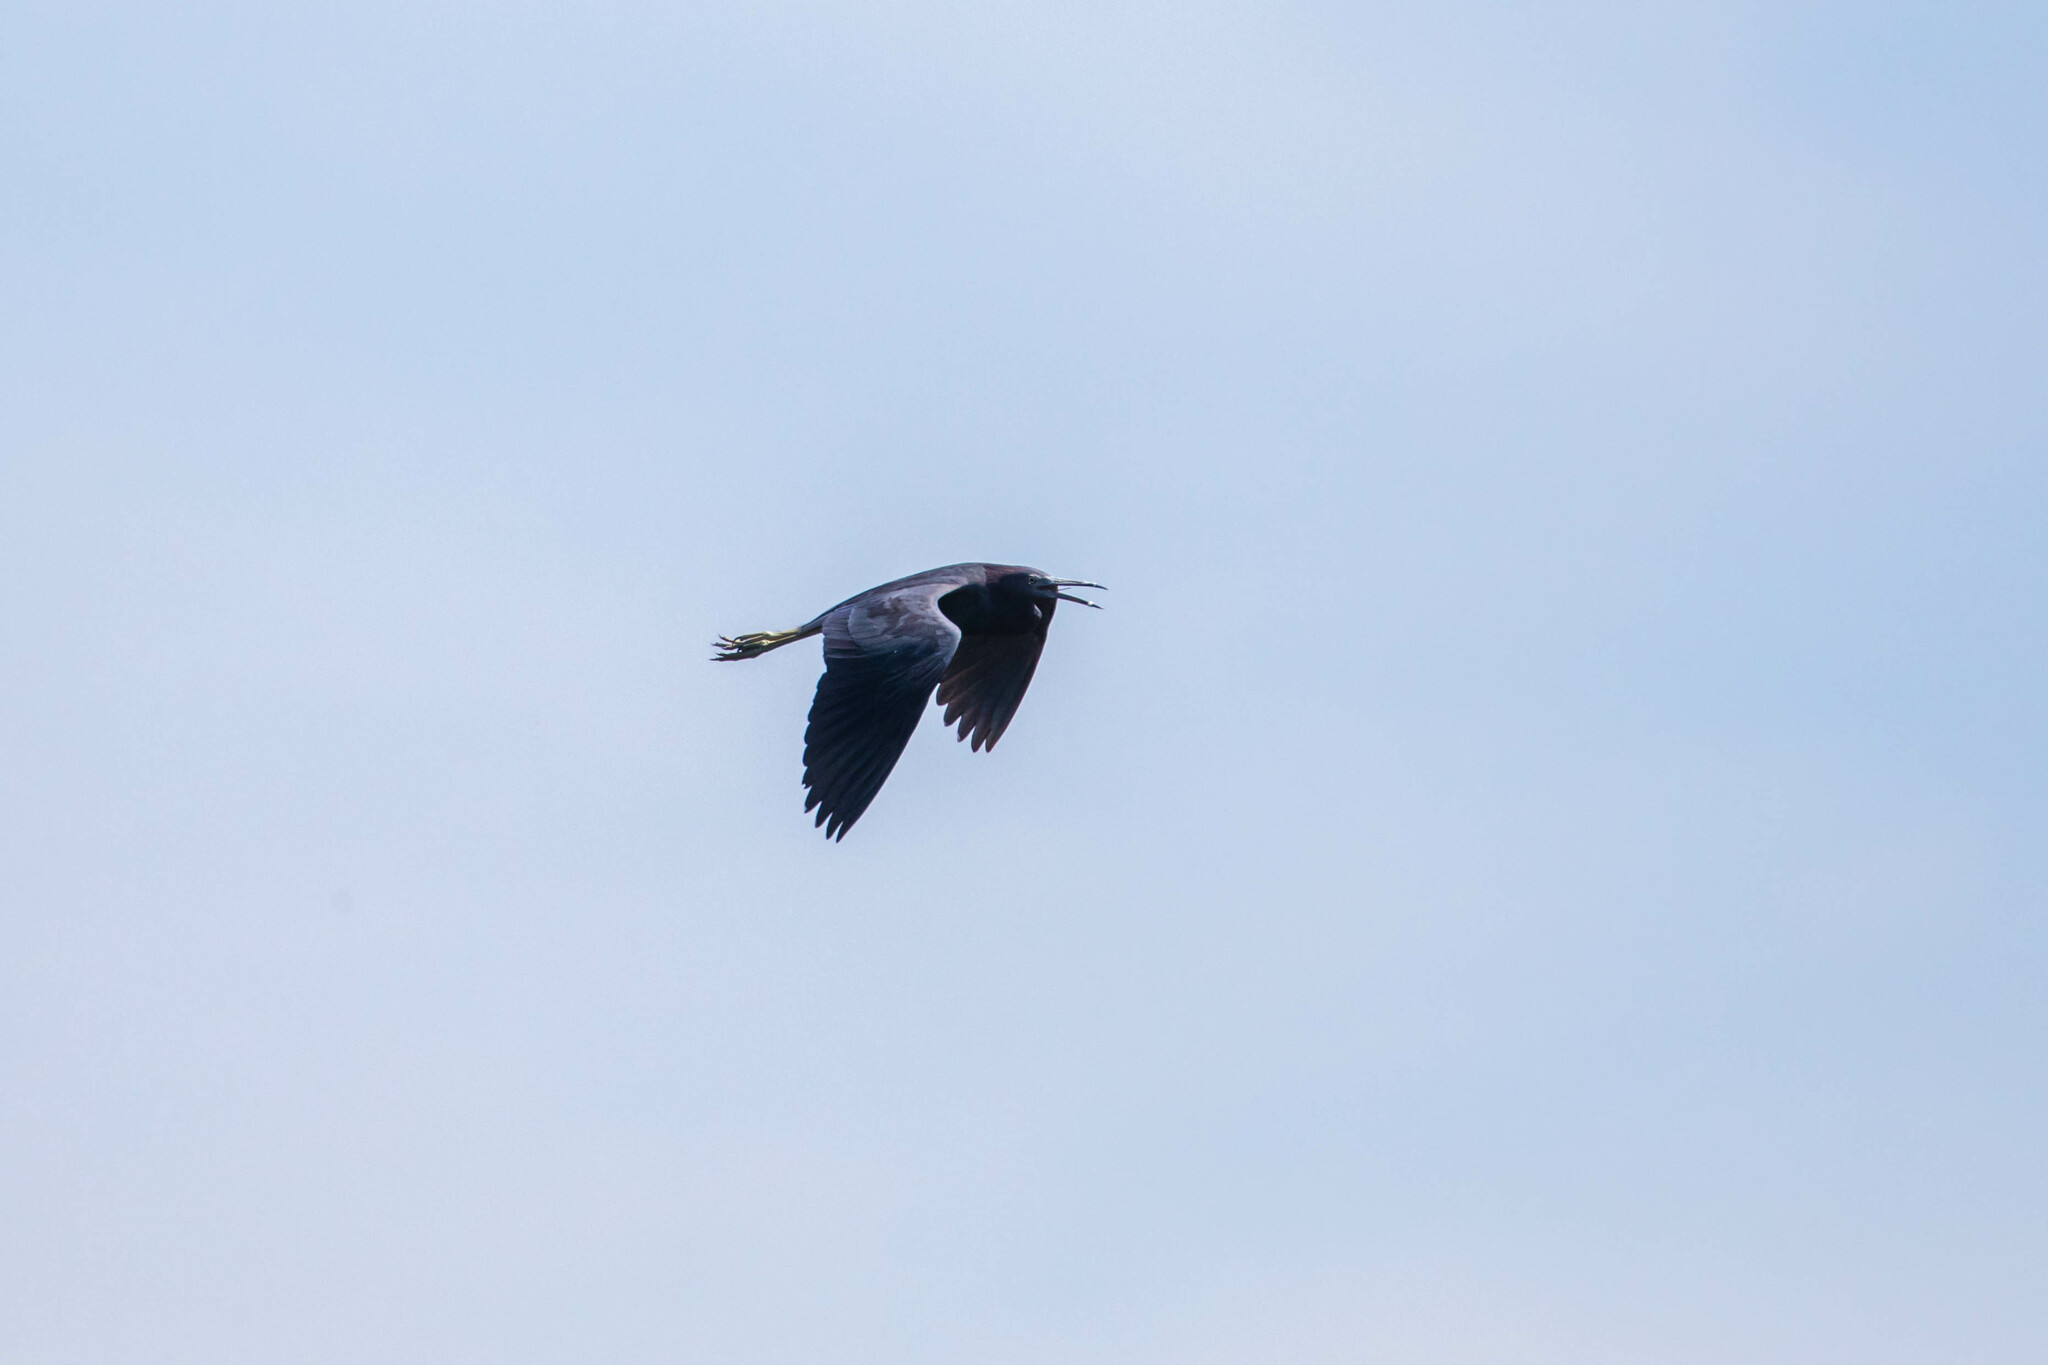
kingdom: Animalia
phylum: Chordata
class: Aves
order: Pelecaniformes
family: Ardeidae
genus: Egretta
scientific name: Egretta caerulea
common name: Little blue heron
